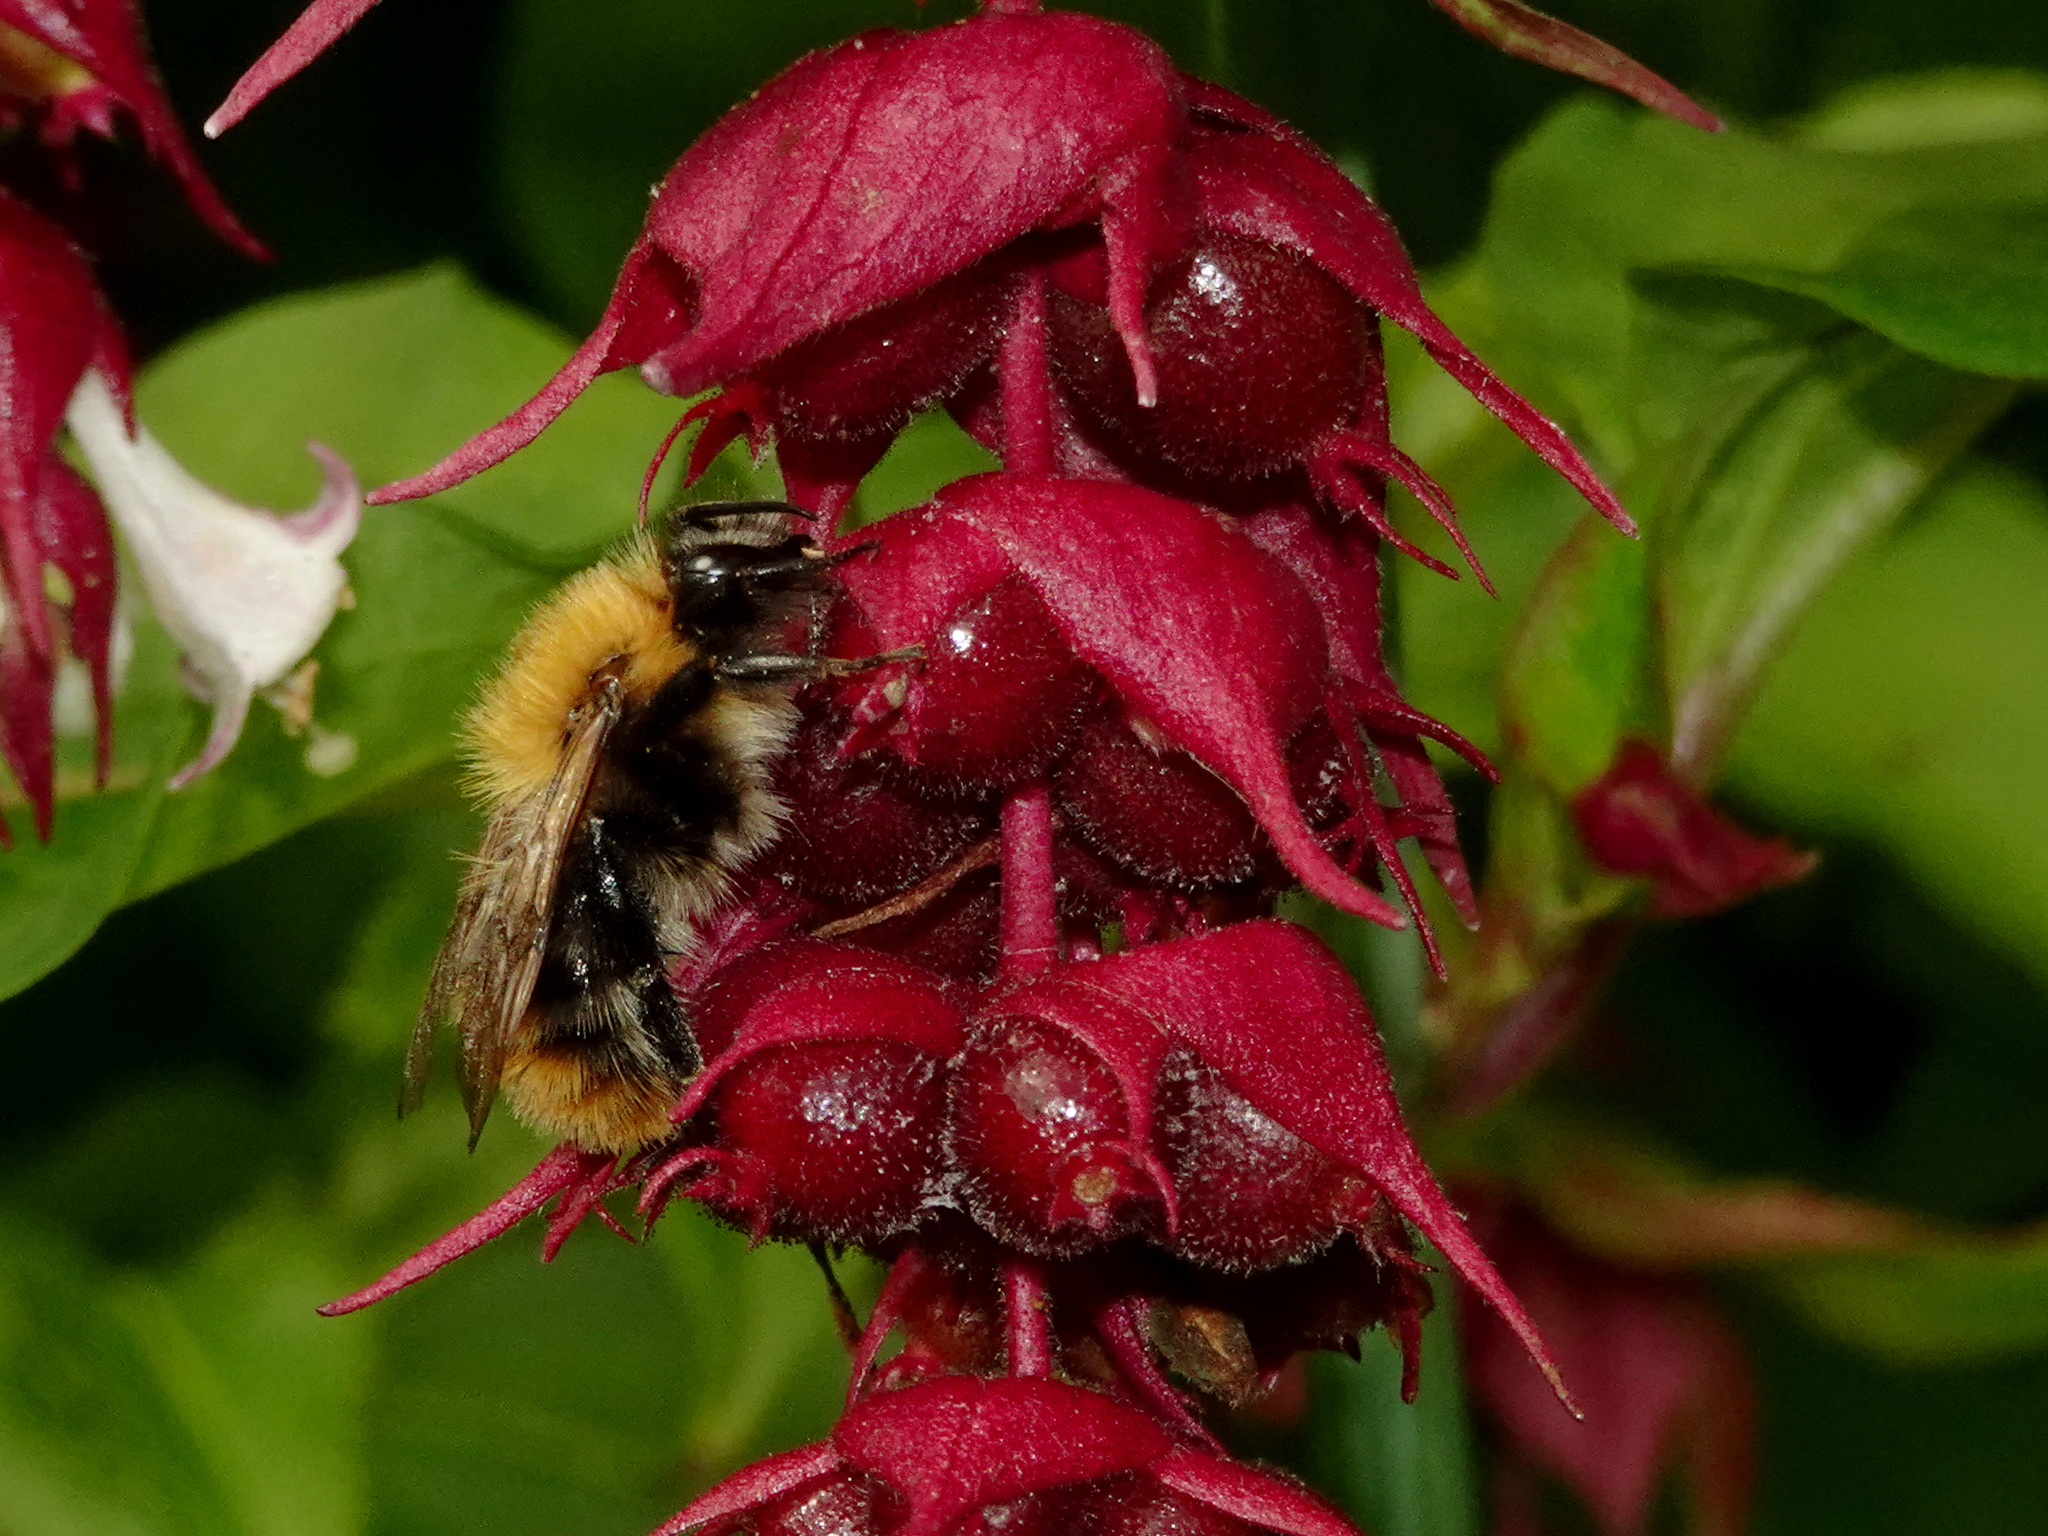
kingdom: Animalia
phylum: Arthropoda
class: Insecta
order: Hymenoptera
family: Apidae
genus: Bombus
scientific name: Bombus pascuorum
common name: Common carder bee
